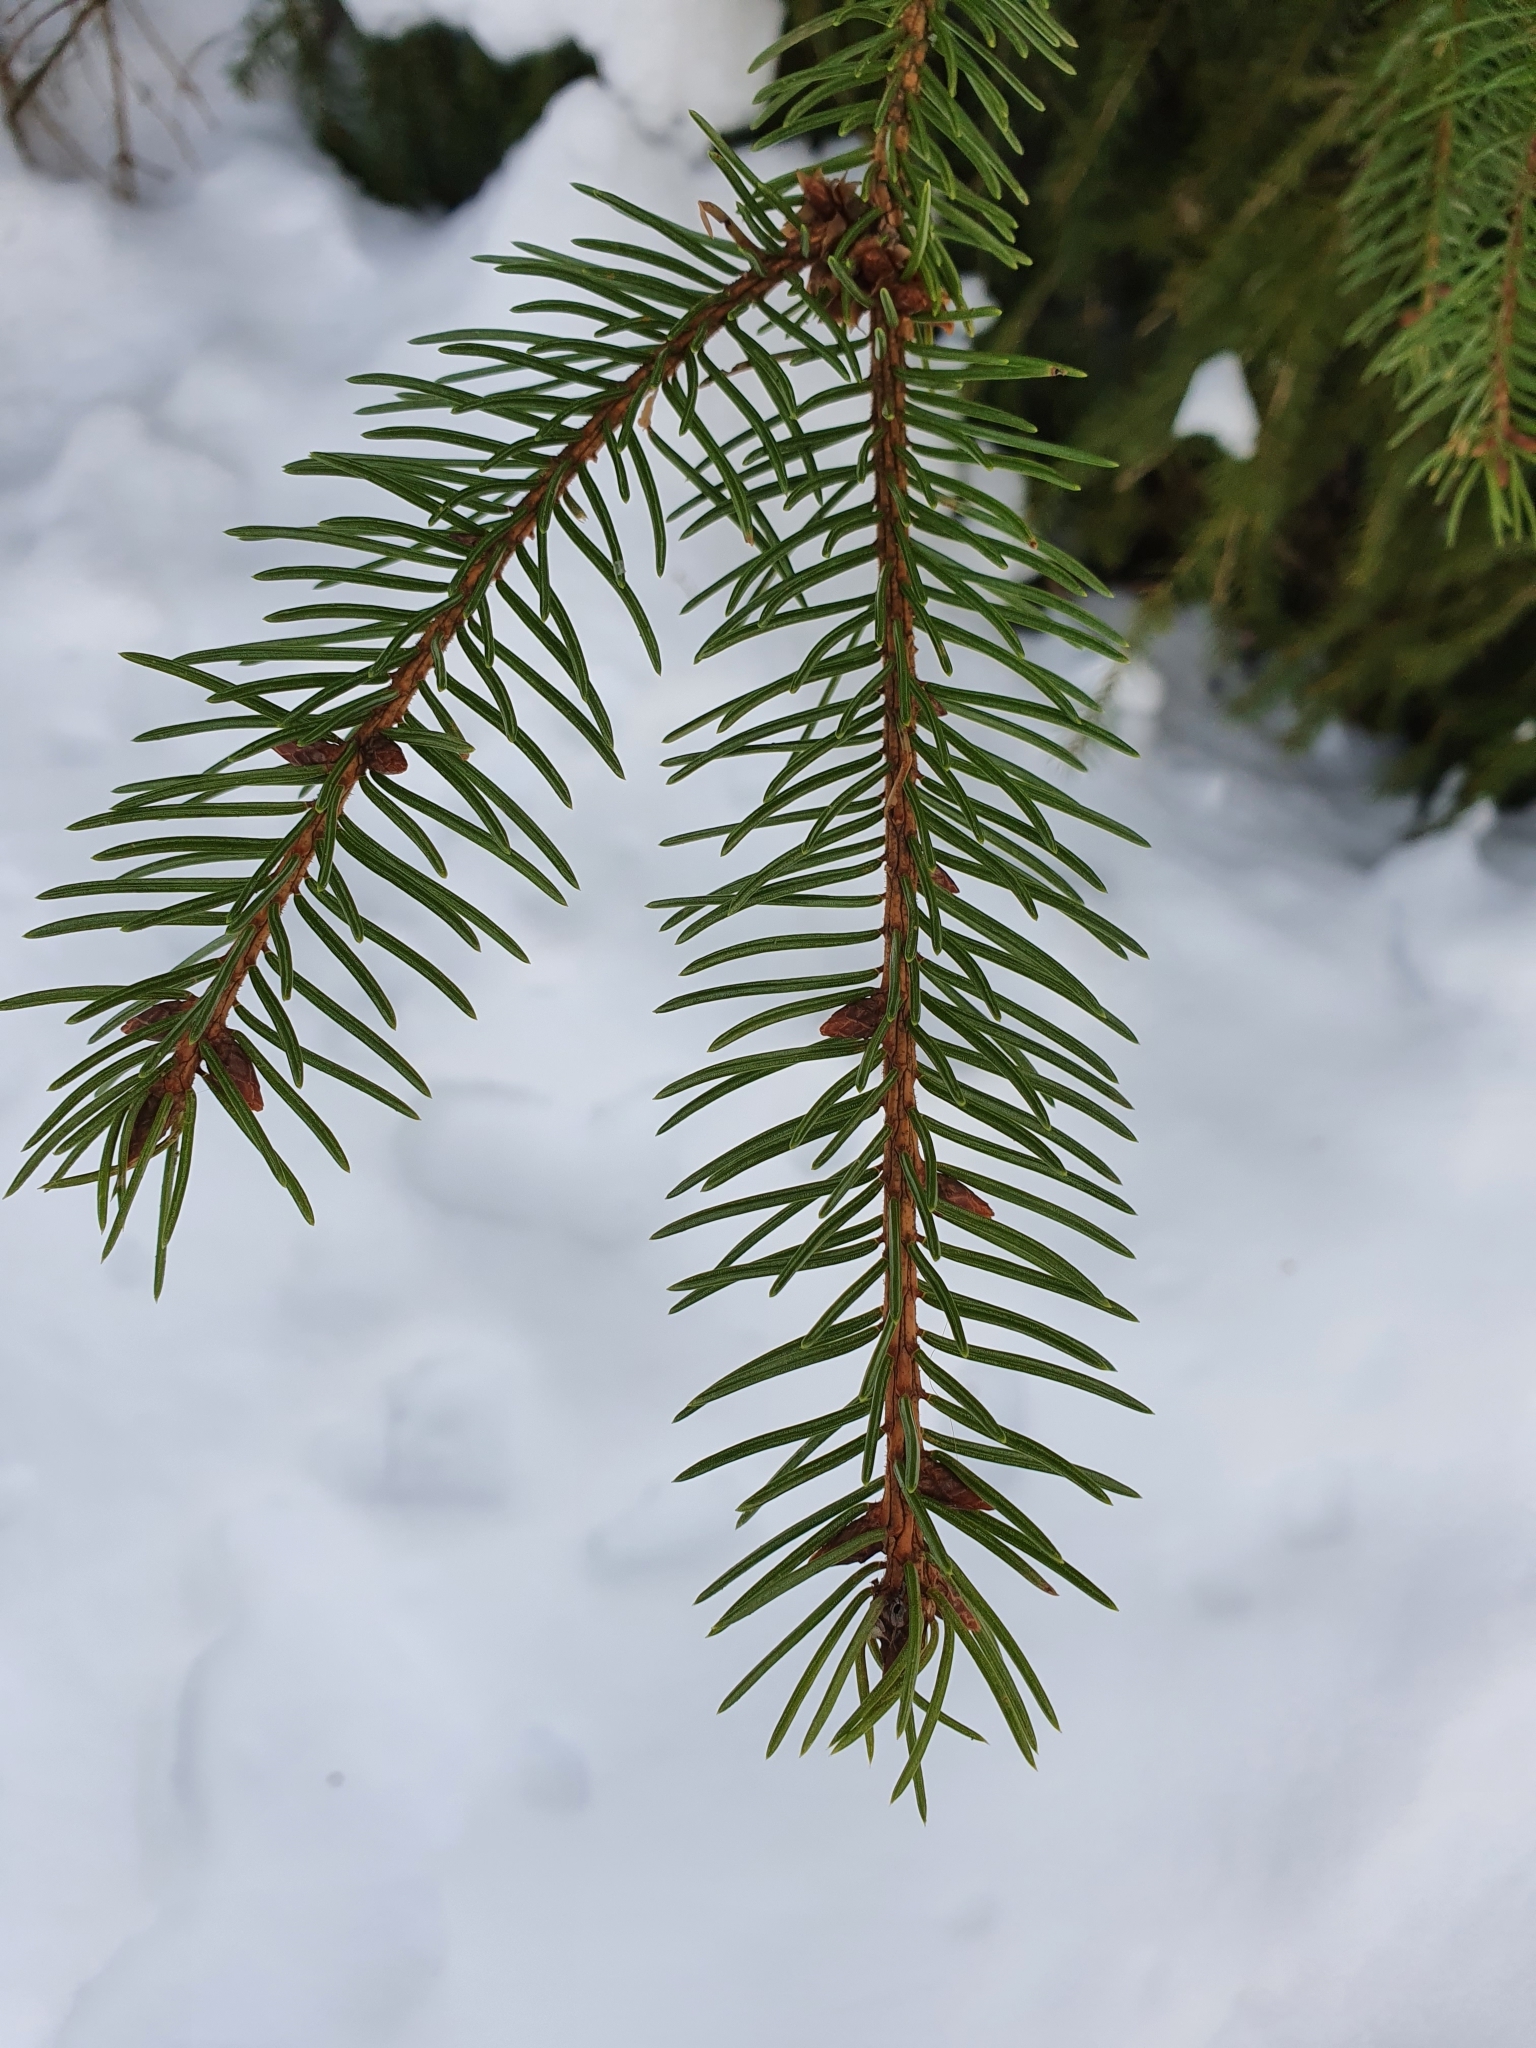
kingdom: Plantae
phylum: Tracheophyta
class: Pinopsida
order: Pinales
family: Pinaceae
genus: Picea
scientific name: Picea abies
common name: Norway spruce
